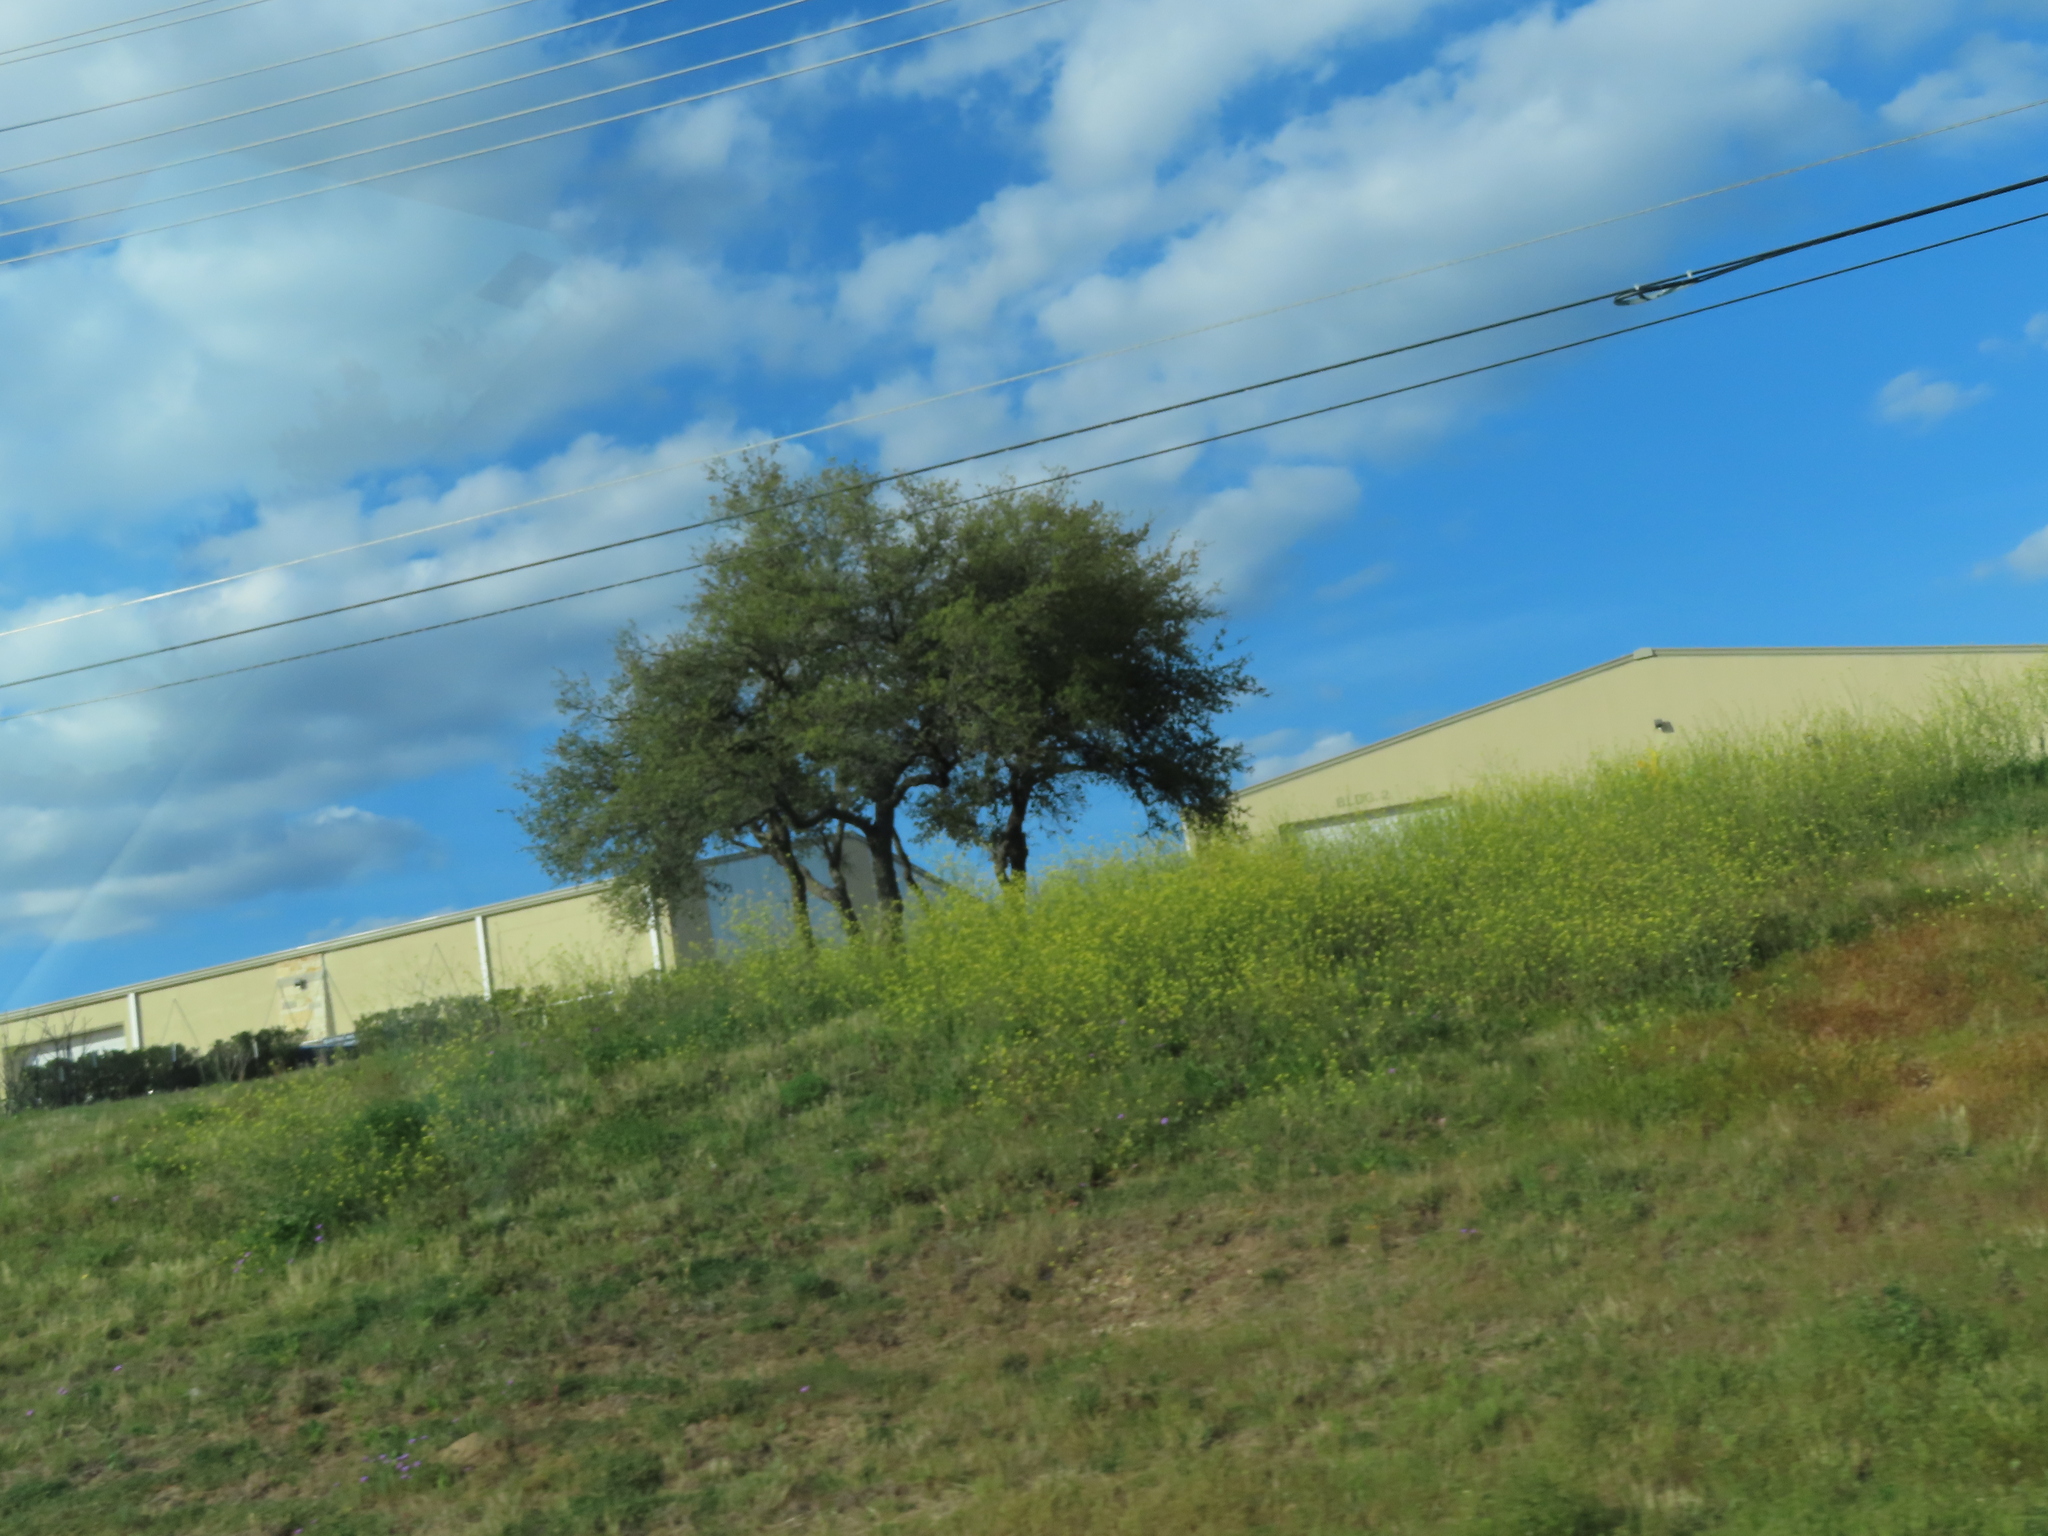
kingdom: Plantae
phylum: Tracheophyta
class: Magnoliopsida
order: Brassicales
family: Brassicaceae
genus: Rapistrum
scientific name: Rapistrum rugosum
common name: Annual bastardcabbage
